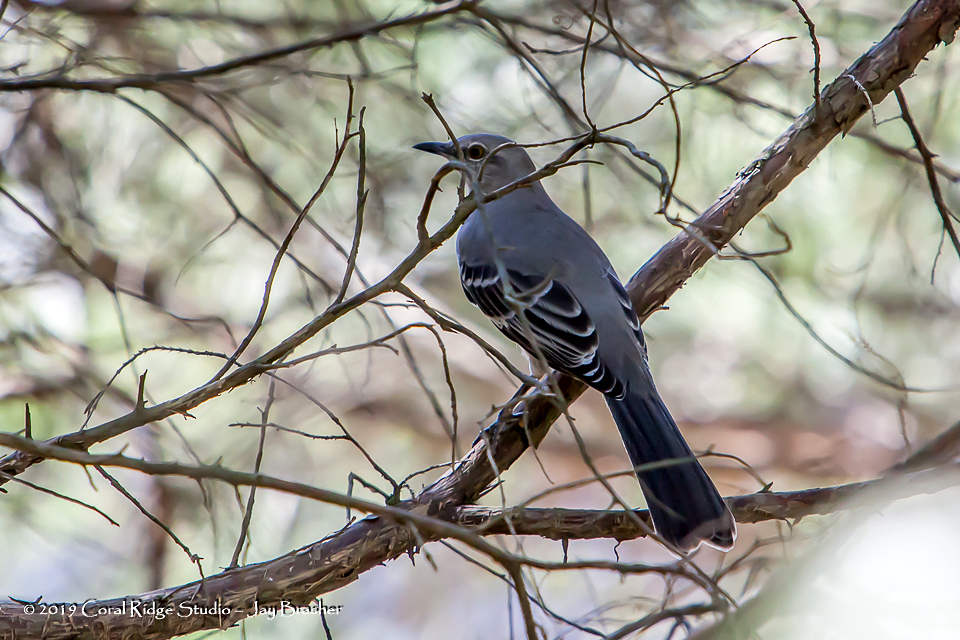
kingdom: Animalia
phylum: Chordata
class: Aves
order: Passeriformes
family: Mimidae
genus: Mimus
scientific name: Mimus polyglottos
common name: Northern mockingbird
